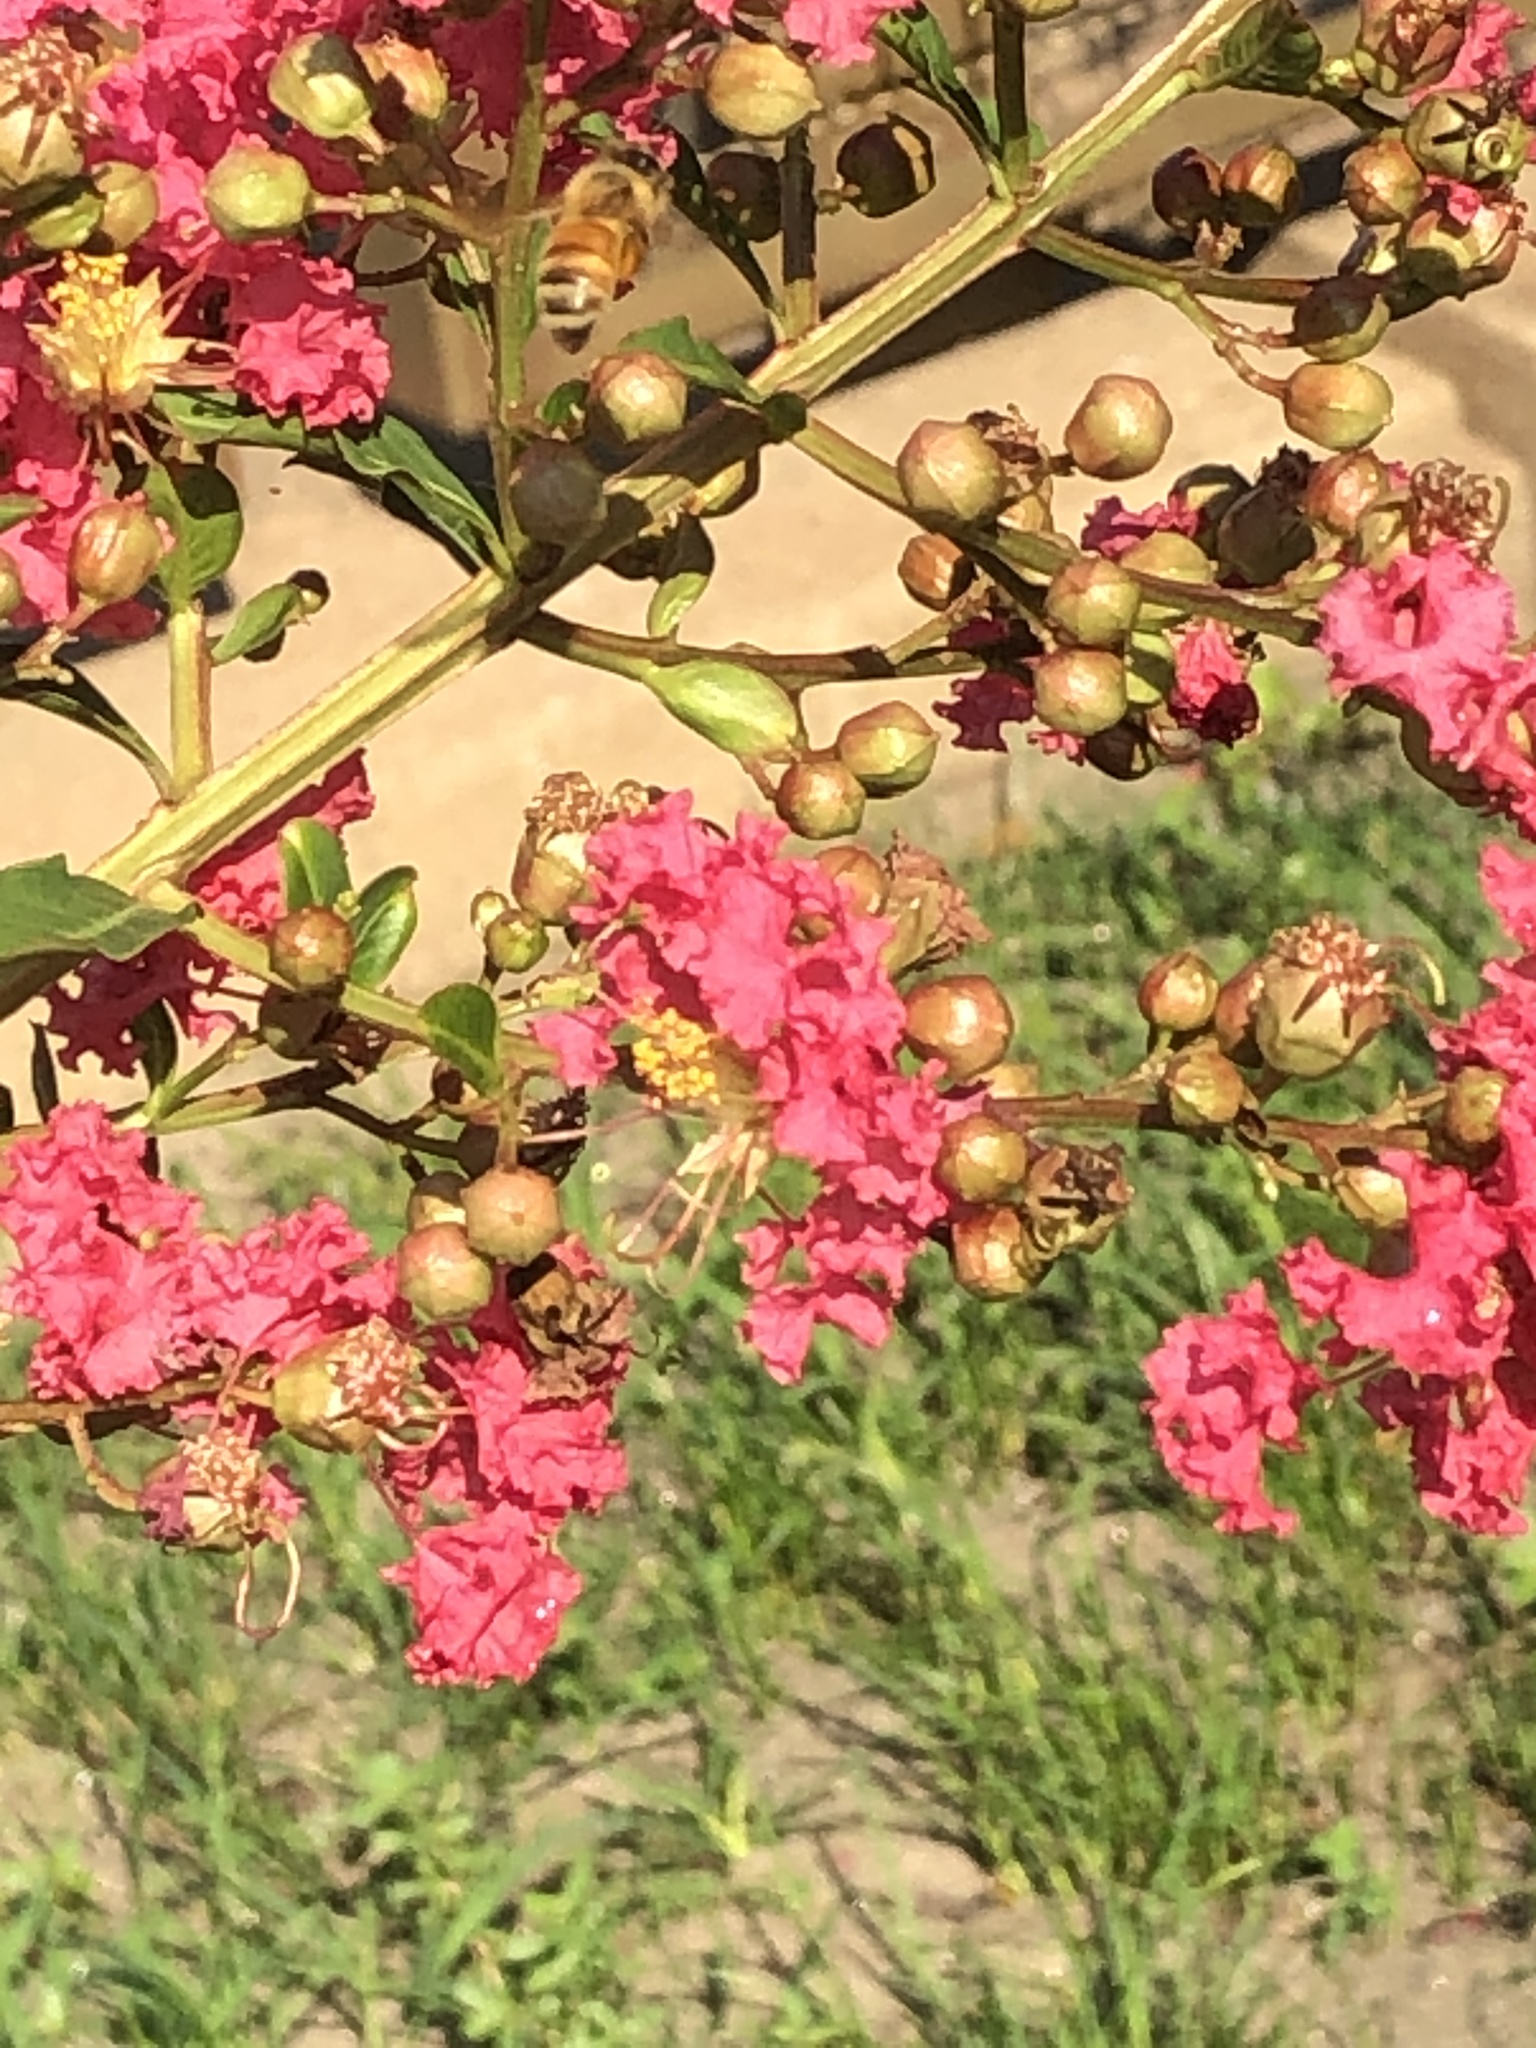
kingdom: Animalia
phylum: Arthropoda
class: Insecta
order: Hymenoptera
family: Apidae
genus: Apis
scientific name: Apis mellifera
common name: Honey bee
